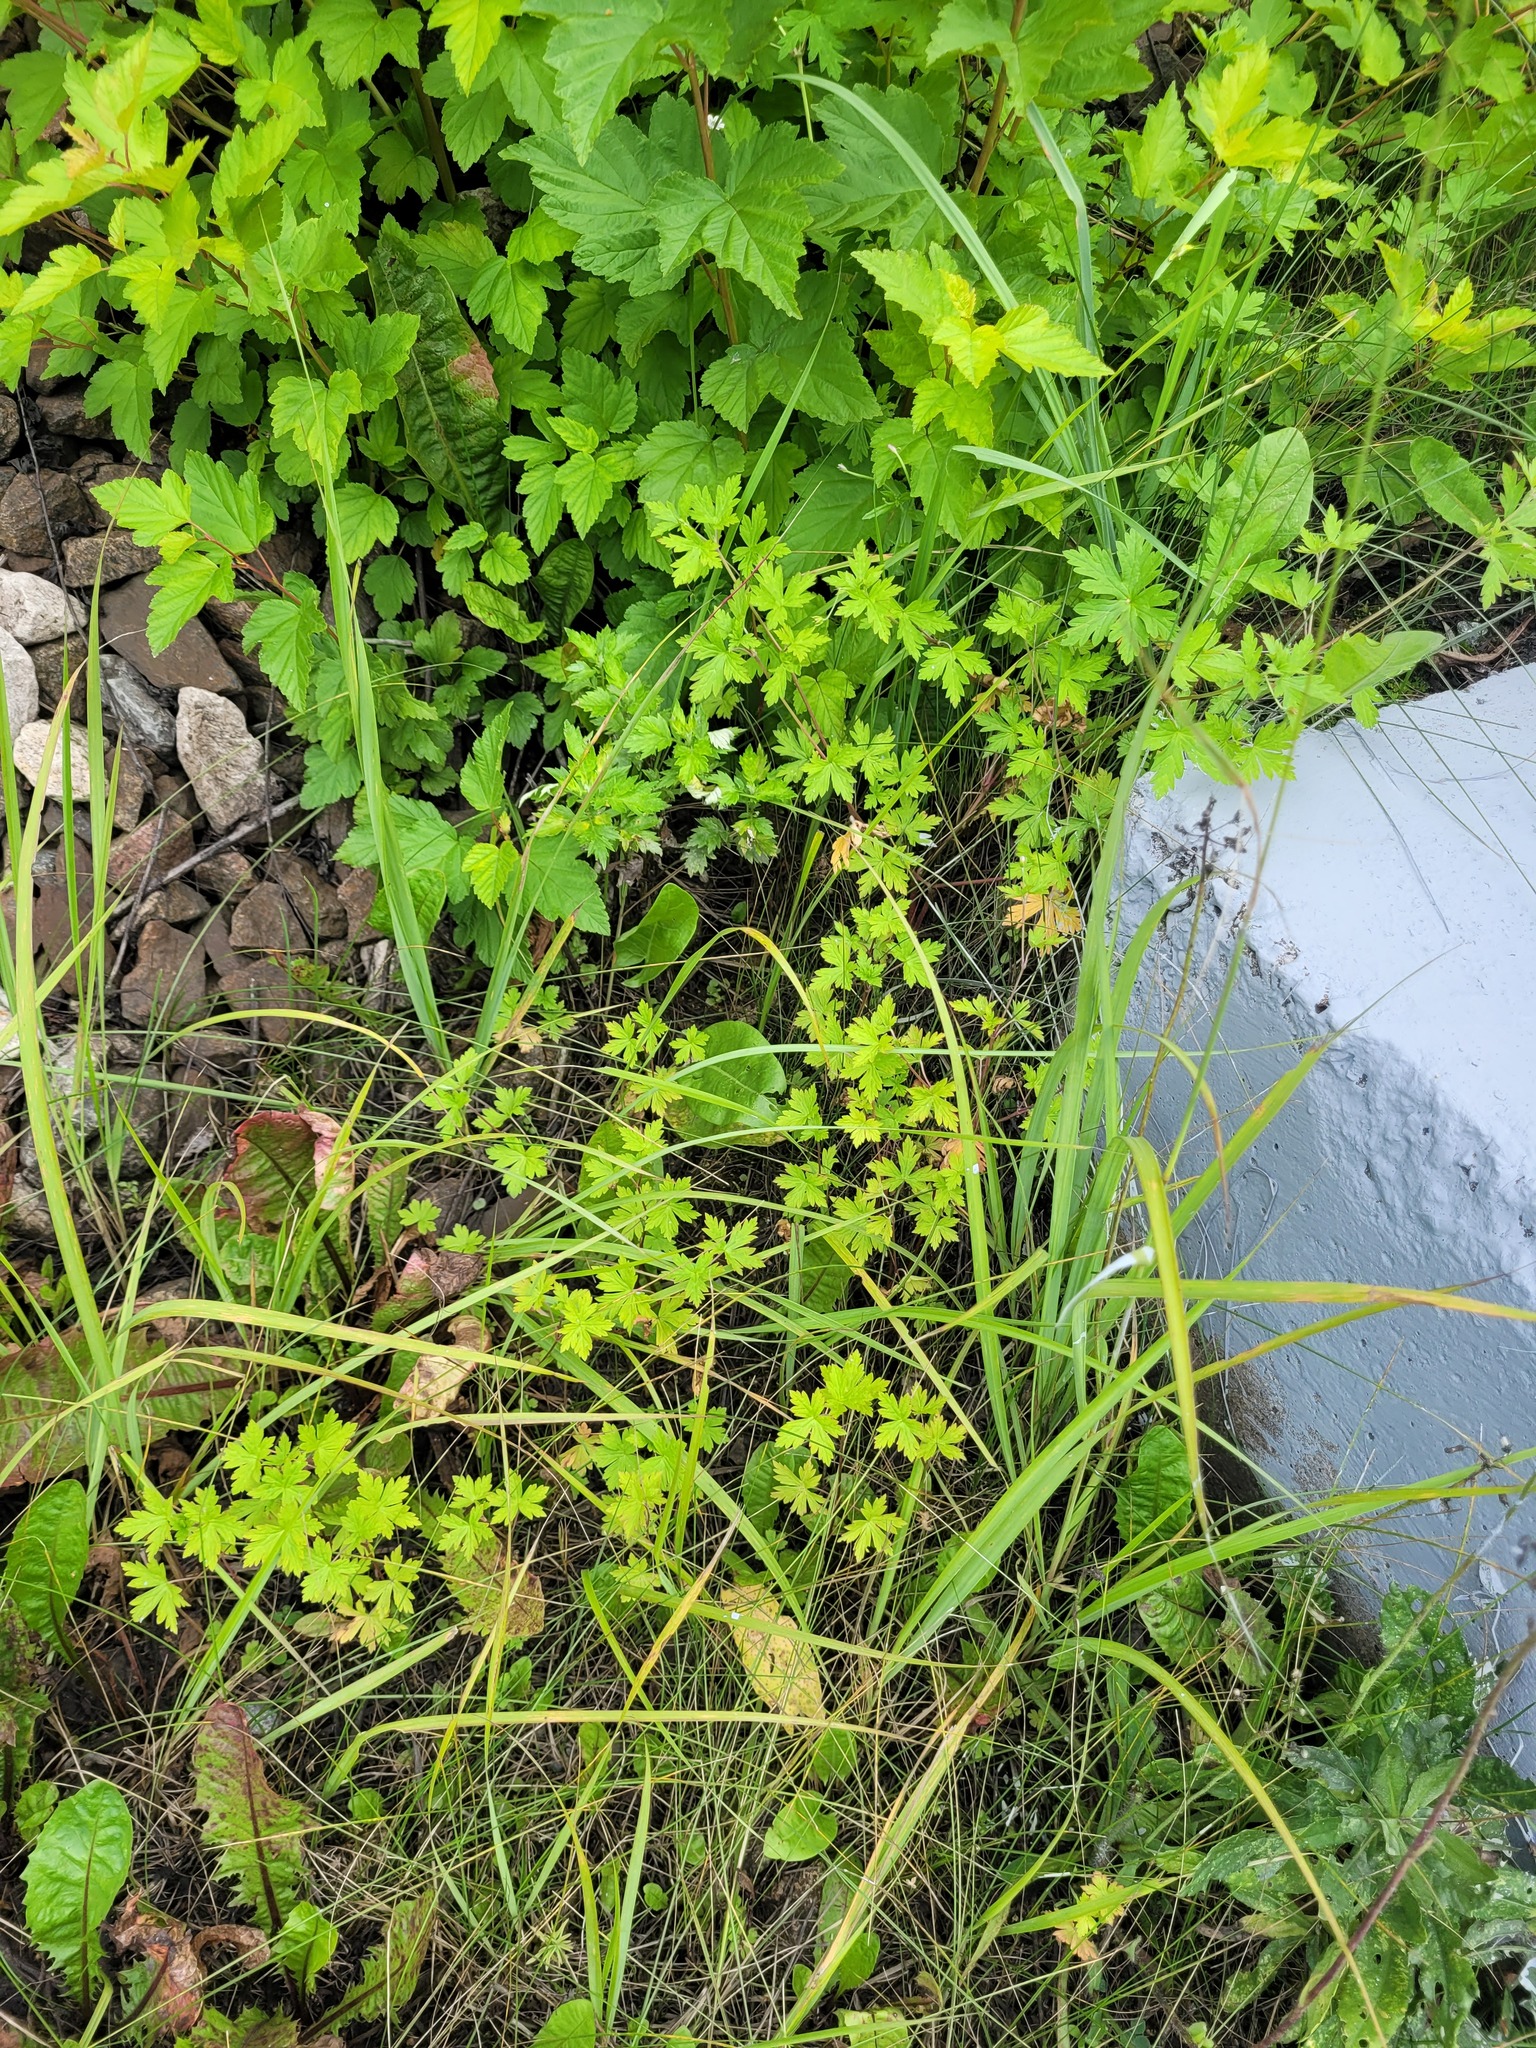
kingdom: Plantae
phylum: Tracheophyta
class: Magnoliopsida
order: Geraniales
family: Geraniaceae
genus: Geranium
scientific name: Geranium sibiricum
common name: Siberian crane's-bill
